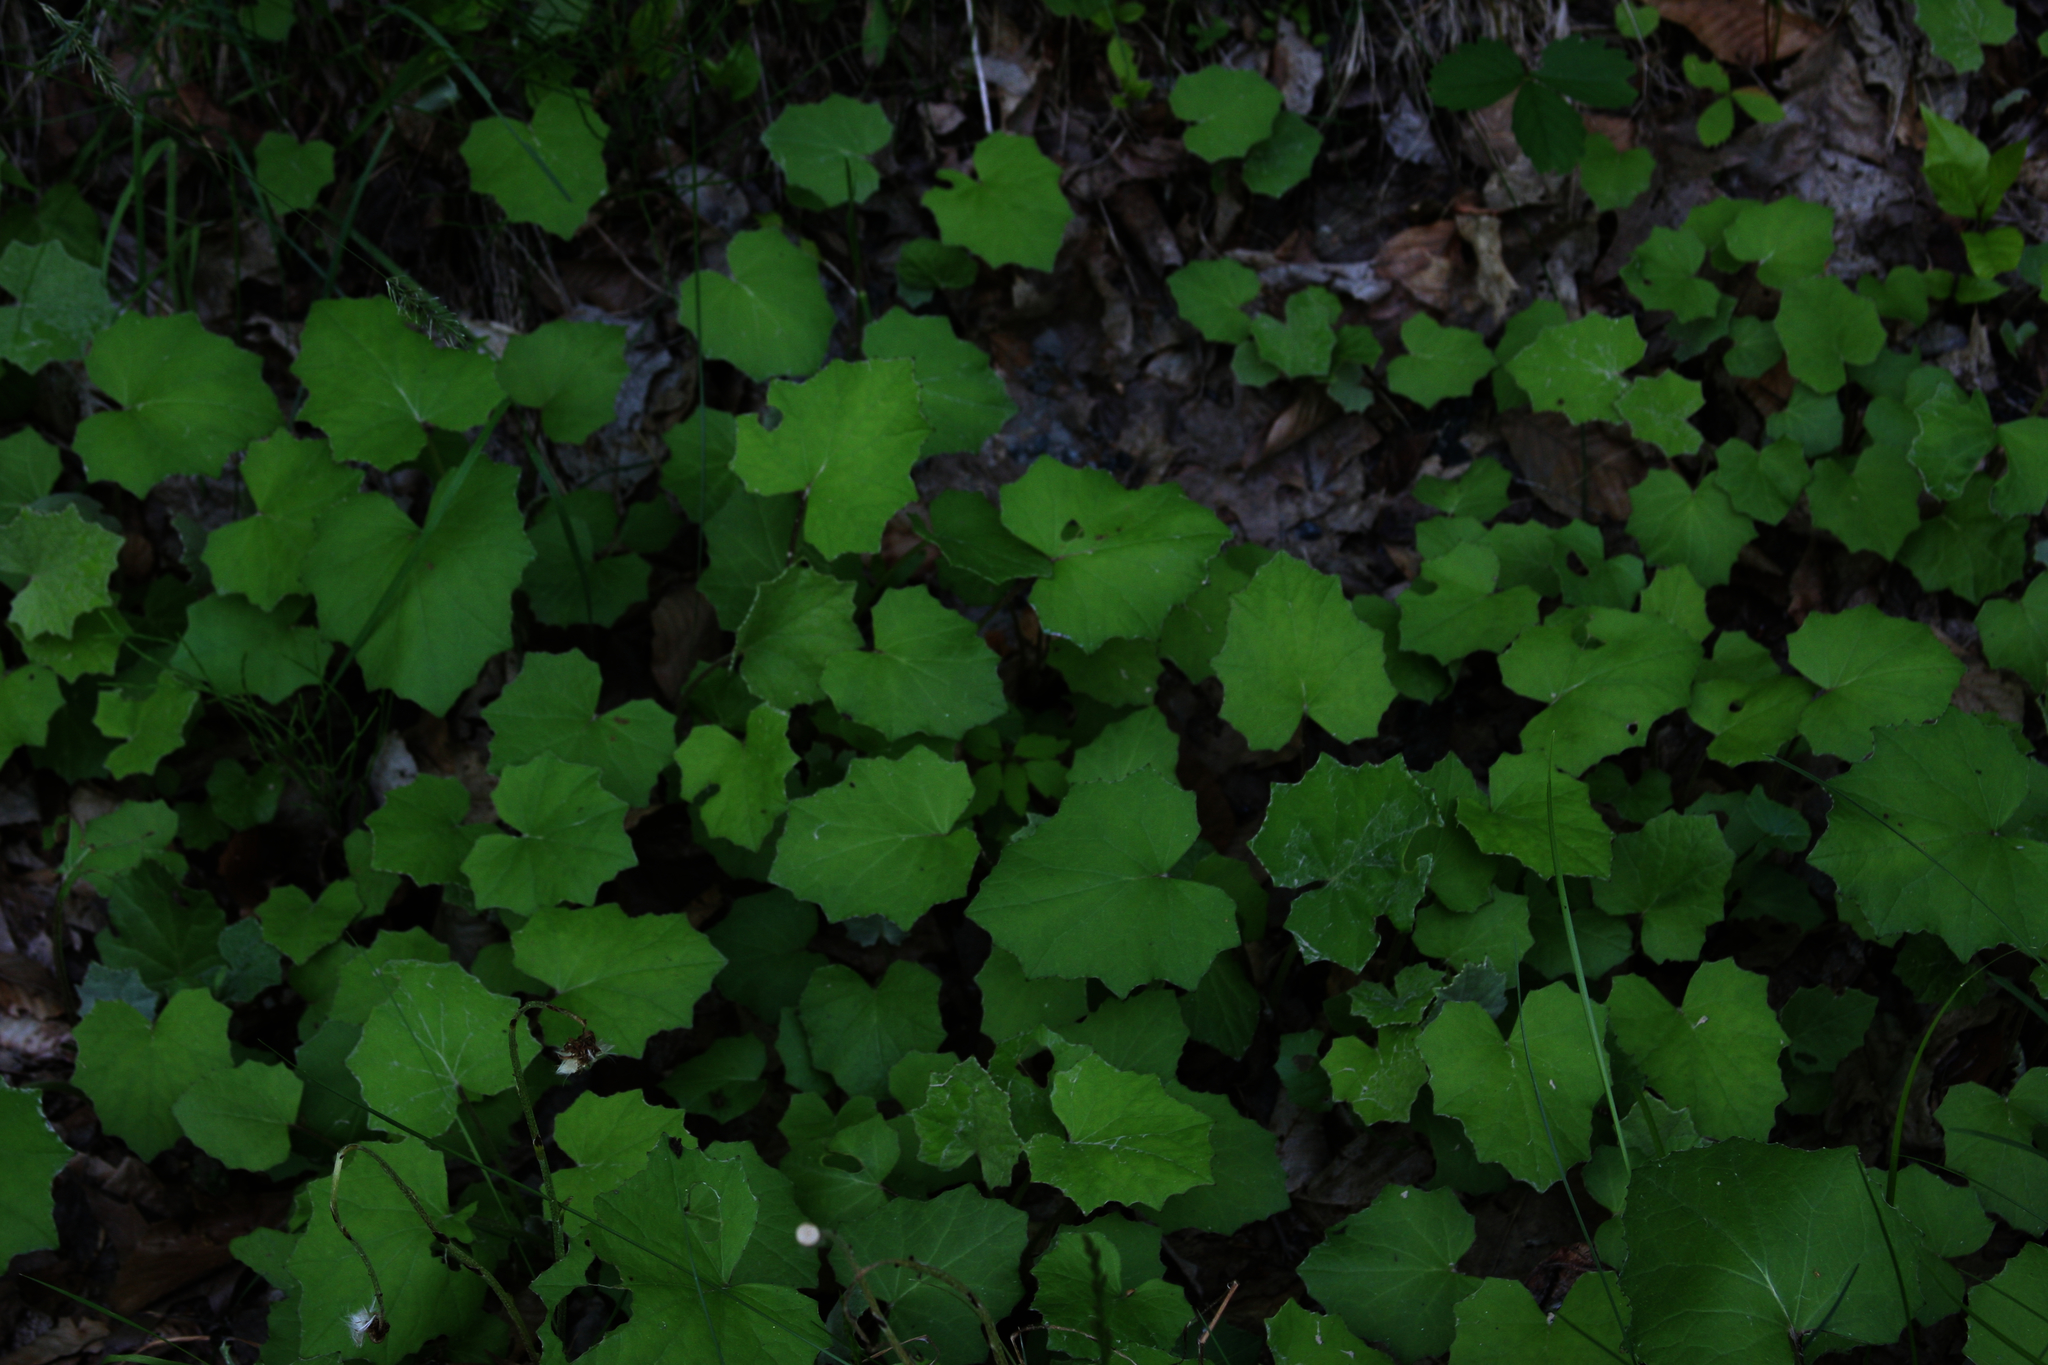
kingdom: Plantae
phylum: Tracheophyta
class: Magnoliopsida
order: Asterales
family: Asteraceae
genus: Tussilago
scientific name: Tussilago farfara
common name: Coltsfoot
